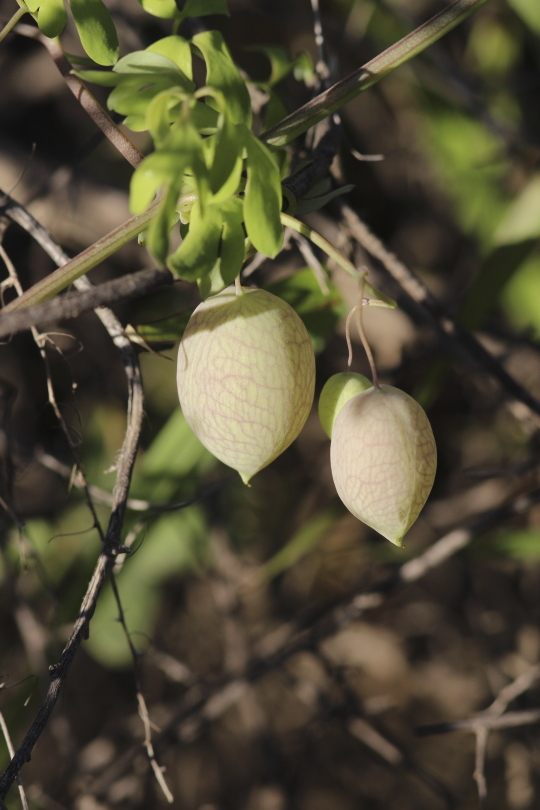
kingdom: Plantae
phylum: Tracheophyta
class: Magnoliopsida
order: Ranunculales
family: Papaveraceae
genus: Cysticapnos
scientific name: Cysticapnos vesicaria
